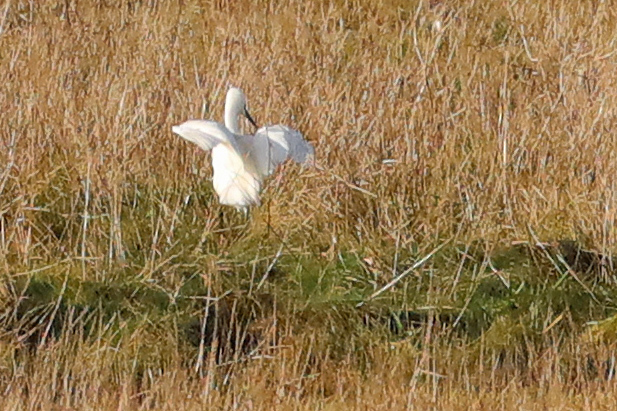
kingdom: Animalia
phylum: Chordata
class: Aves
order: Pelecaniformes
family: Ardeidae
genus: Egretta
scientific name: Egretta garzetta
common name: Little egret
